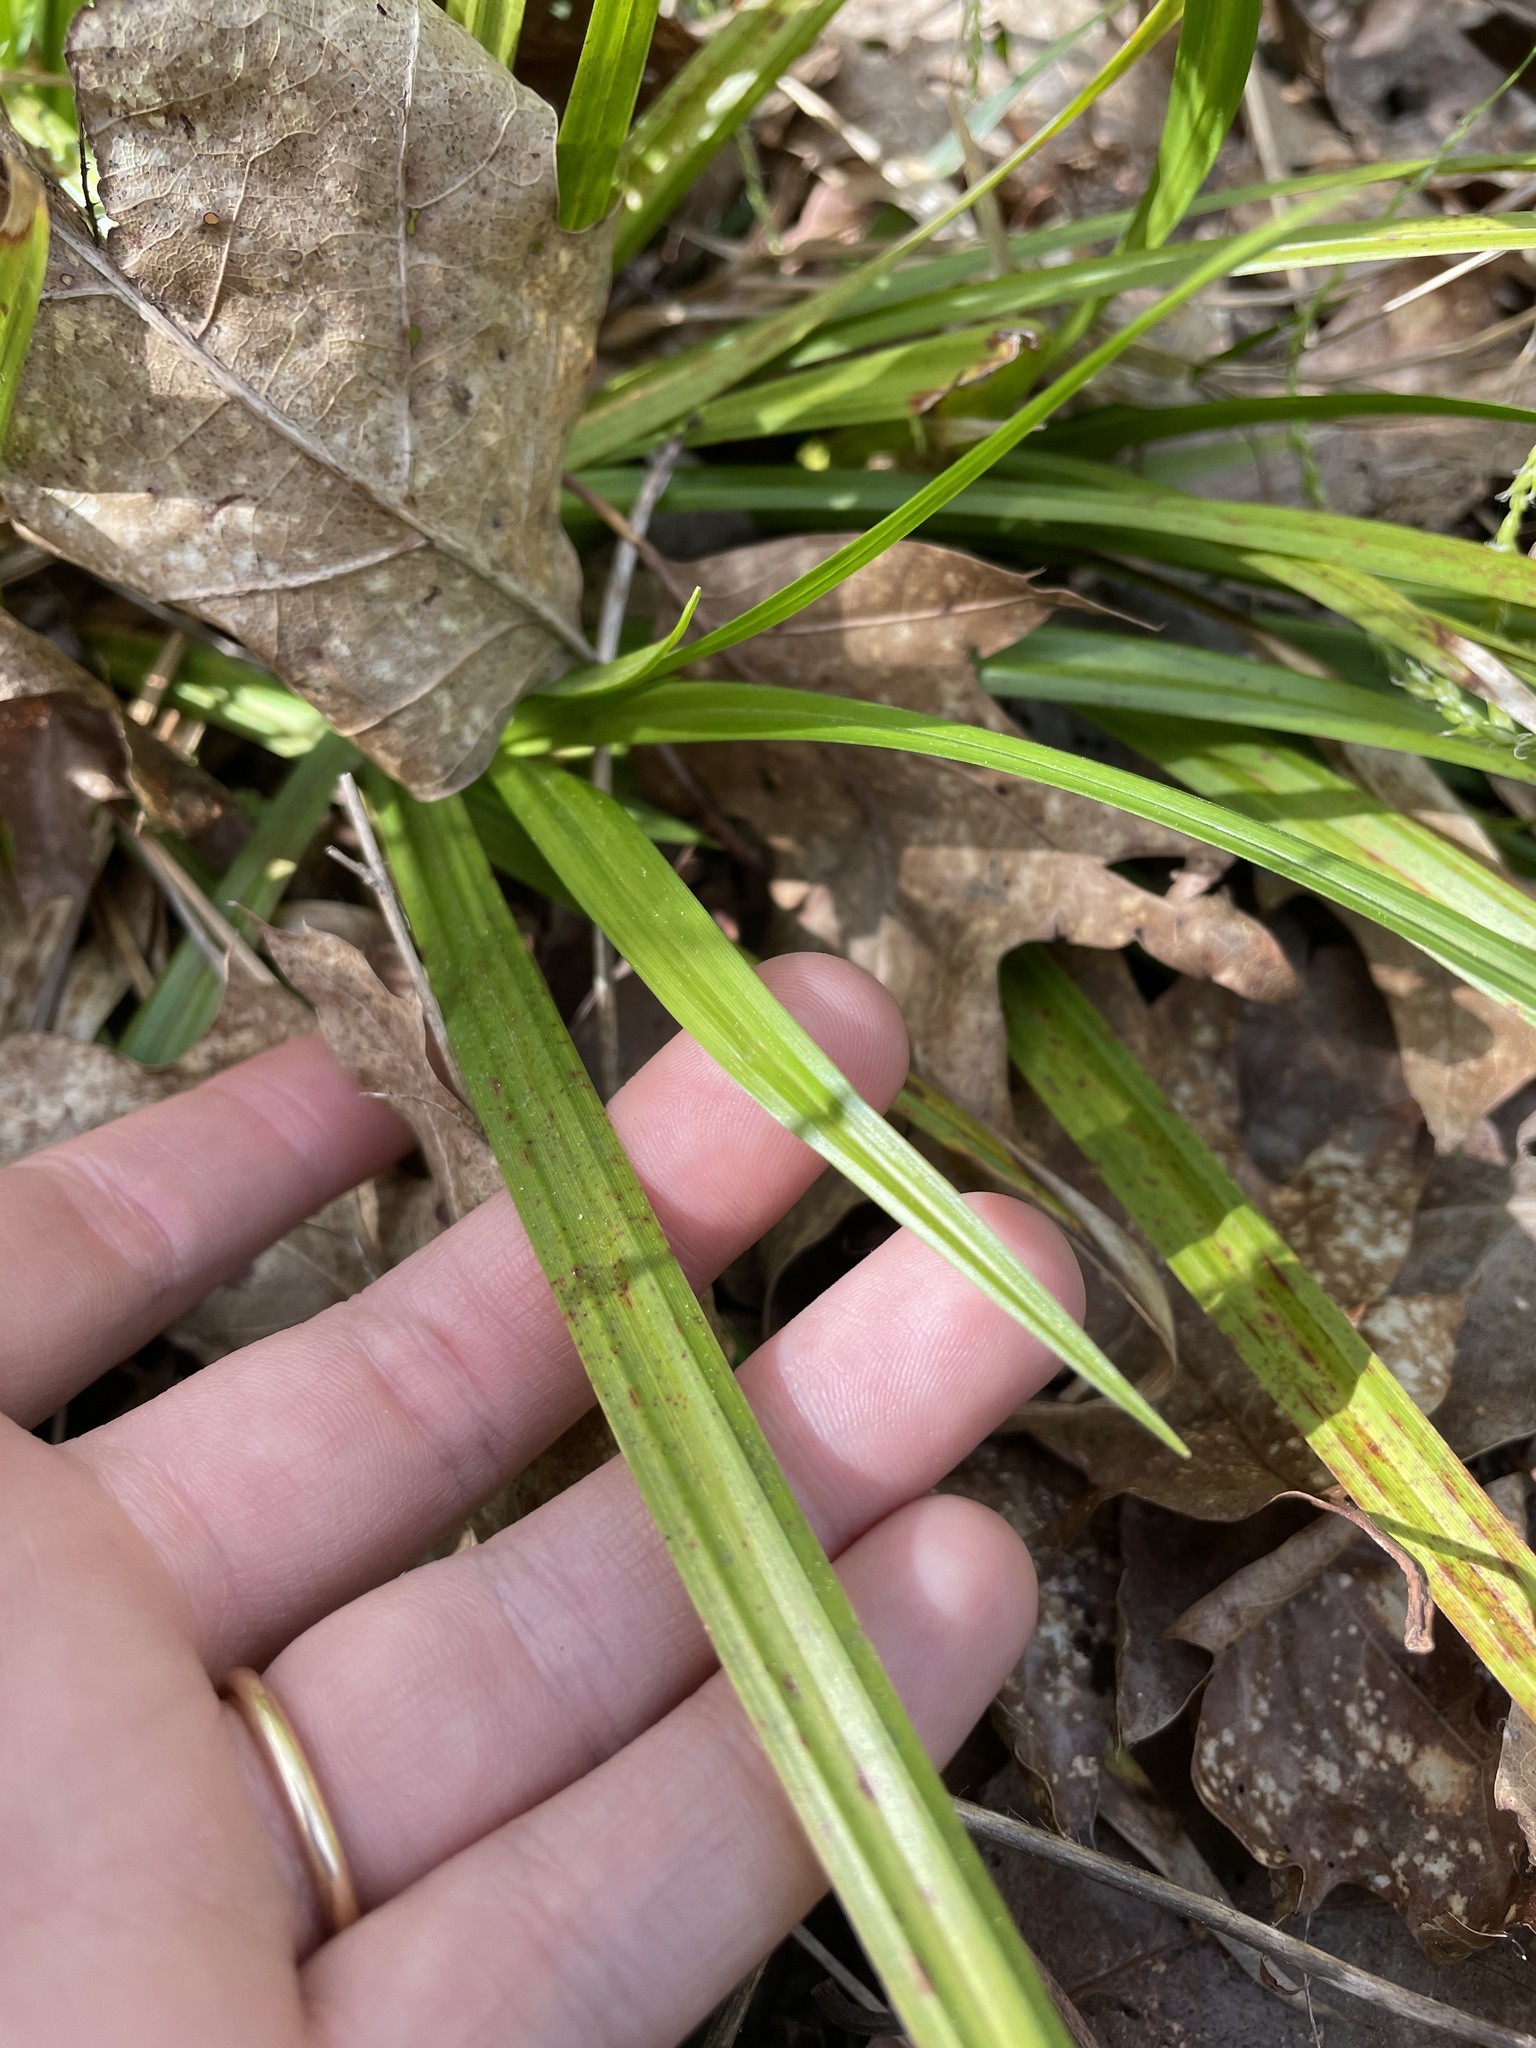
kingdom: Plantae
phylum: Tracheophyta
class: Liliopsida
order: Poales
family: Cyperaceae
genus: Carex
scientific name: Carex arctata
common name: Black sedge
